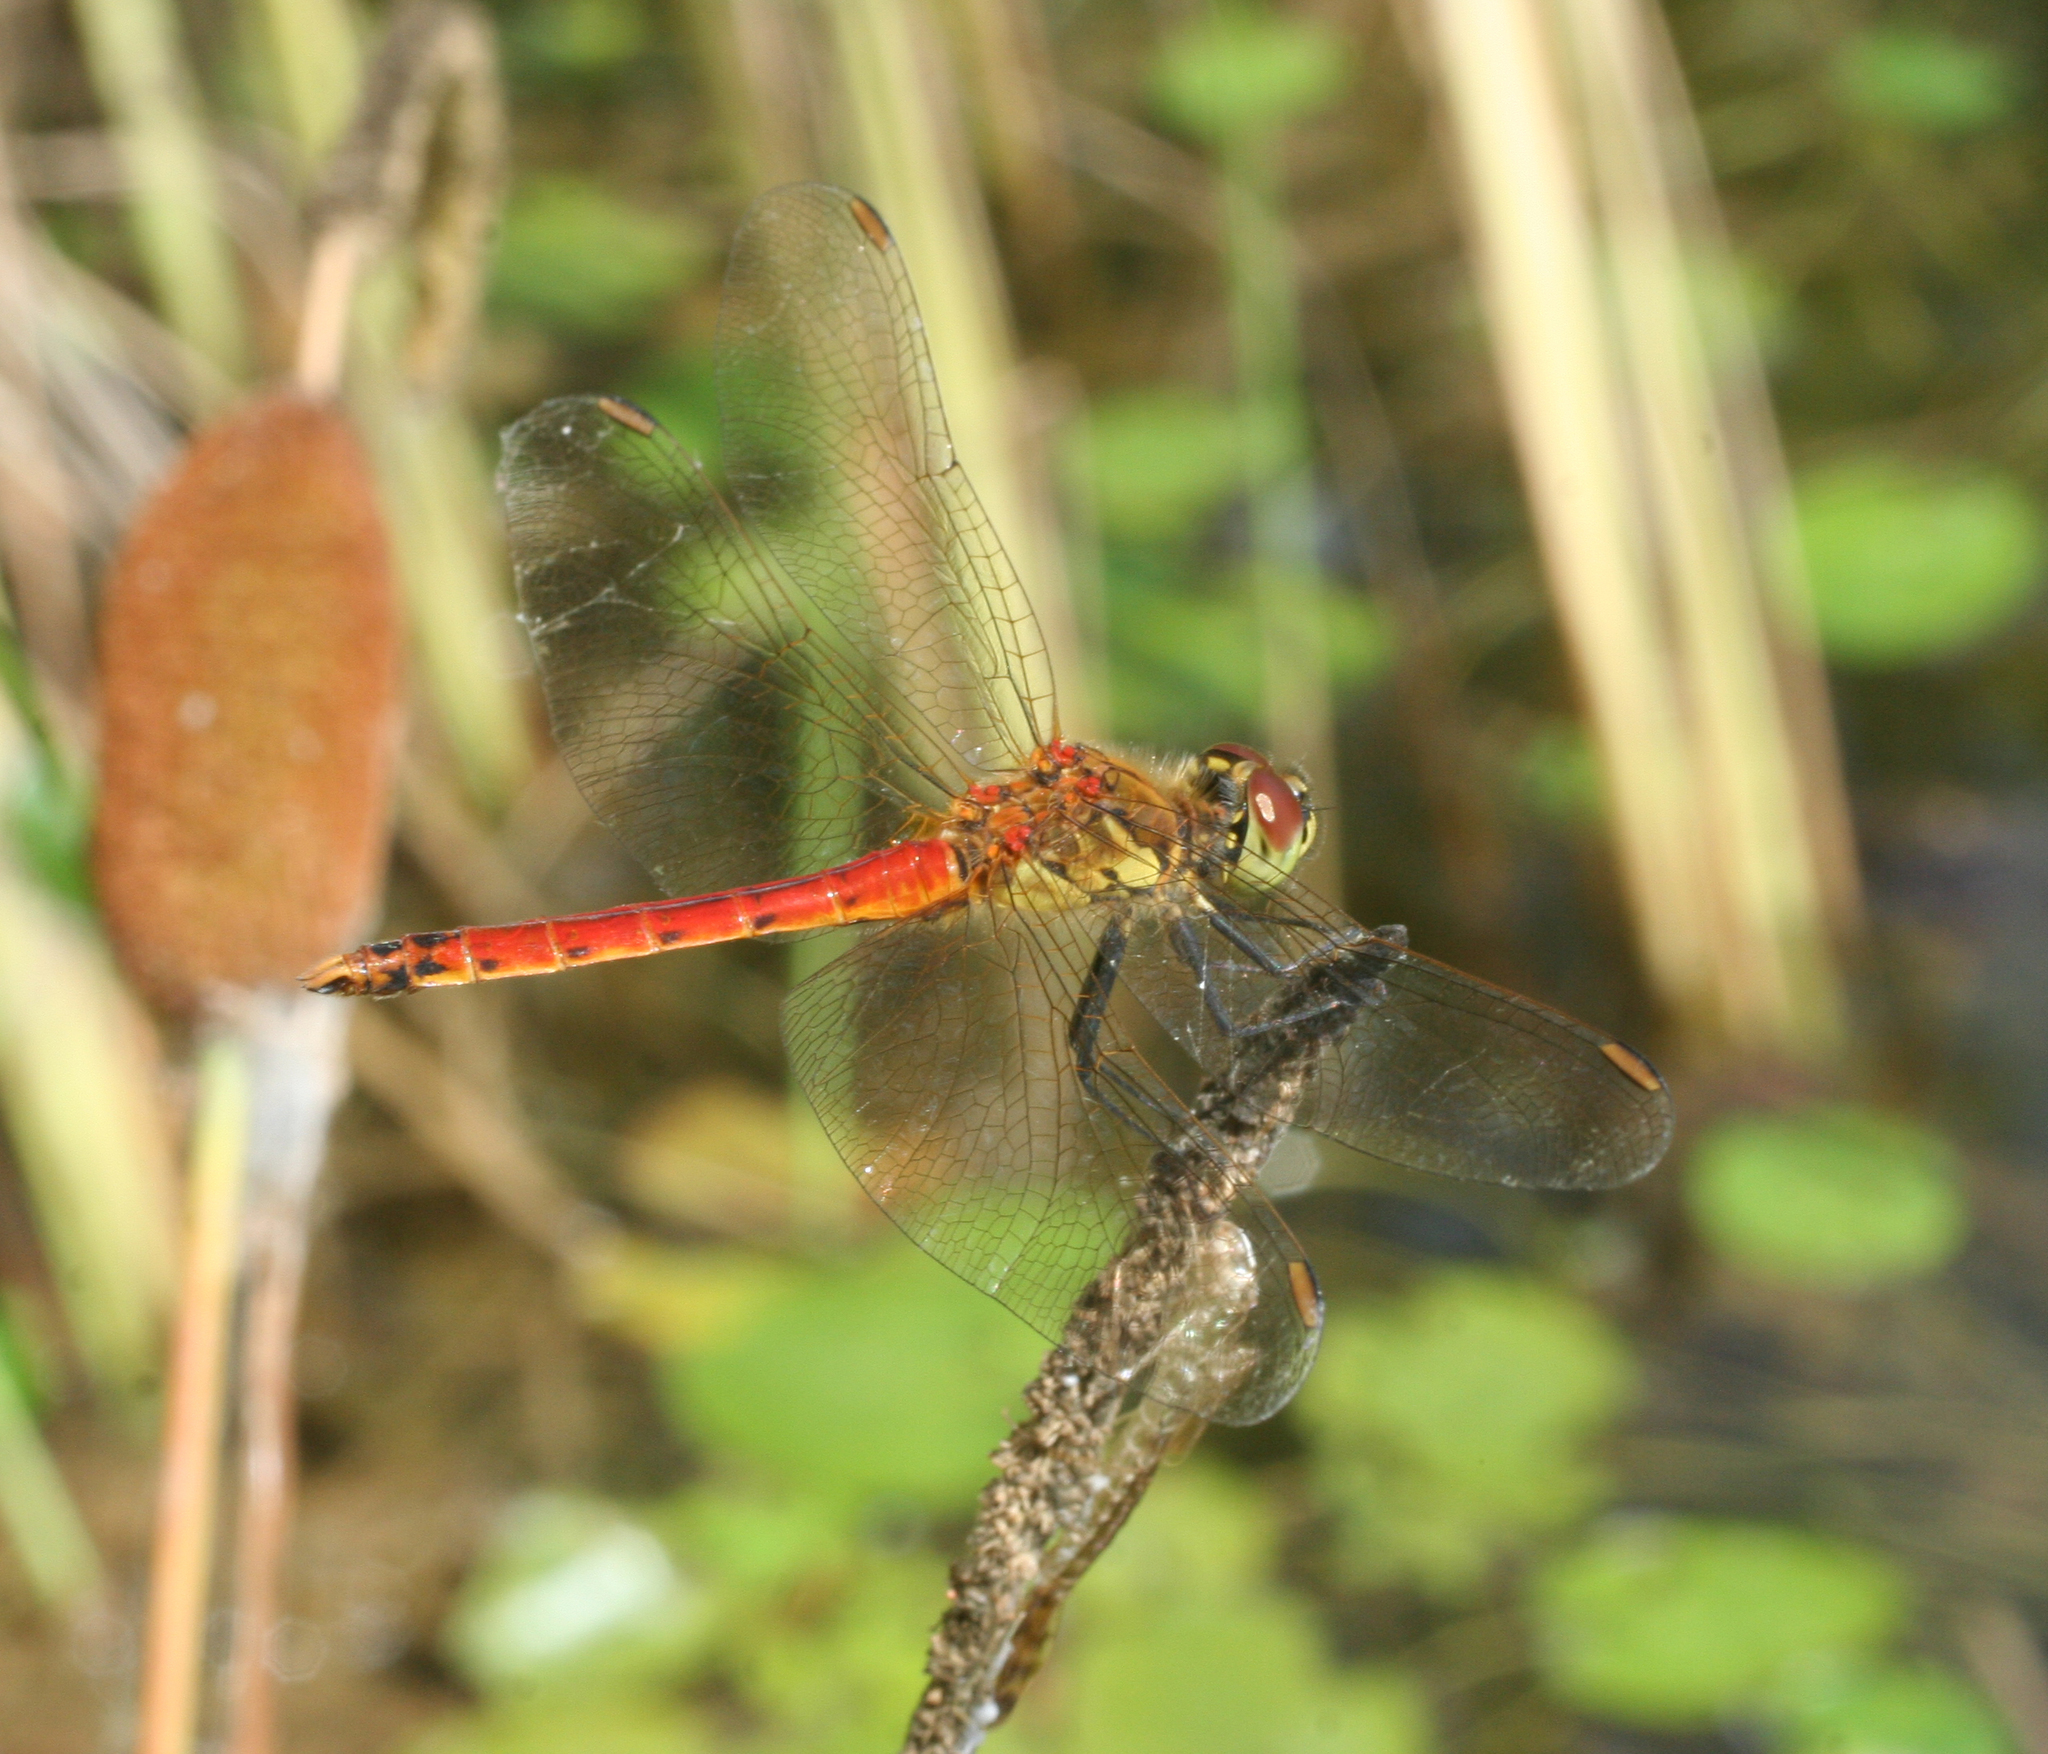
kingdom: Animalia
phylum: Arthropoda
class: Insecta
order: Odonata
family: Libellulidae
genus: Sympetrum
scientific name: Sympetrum depressiusculum
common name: Spotted darter
